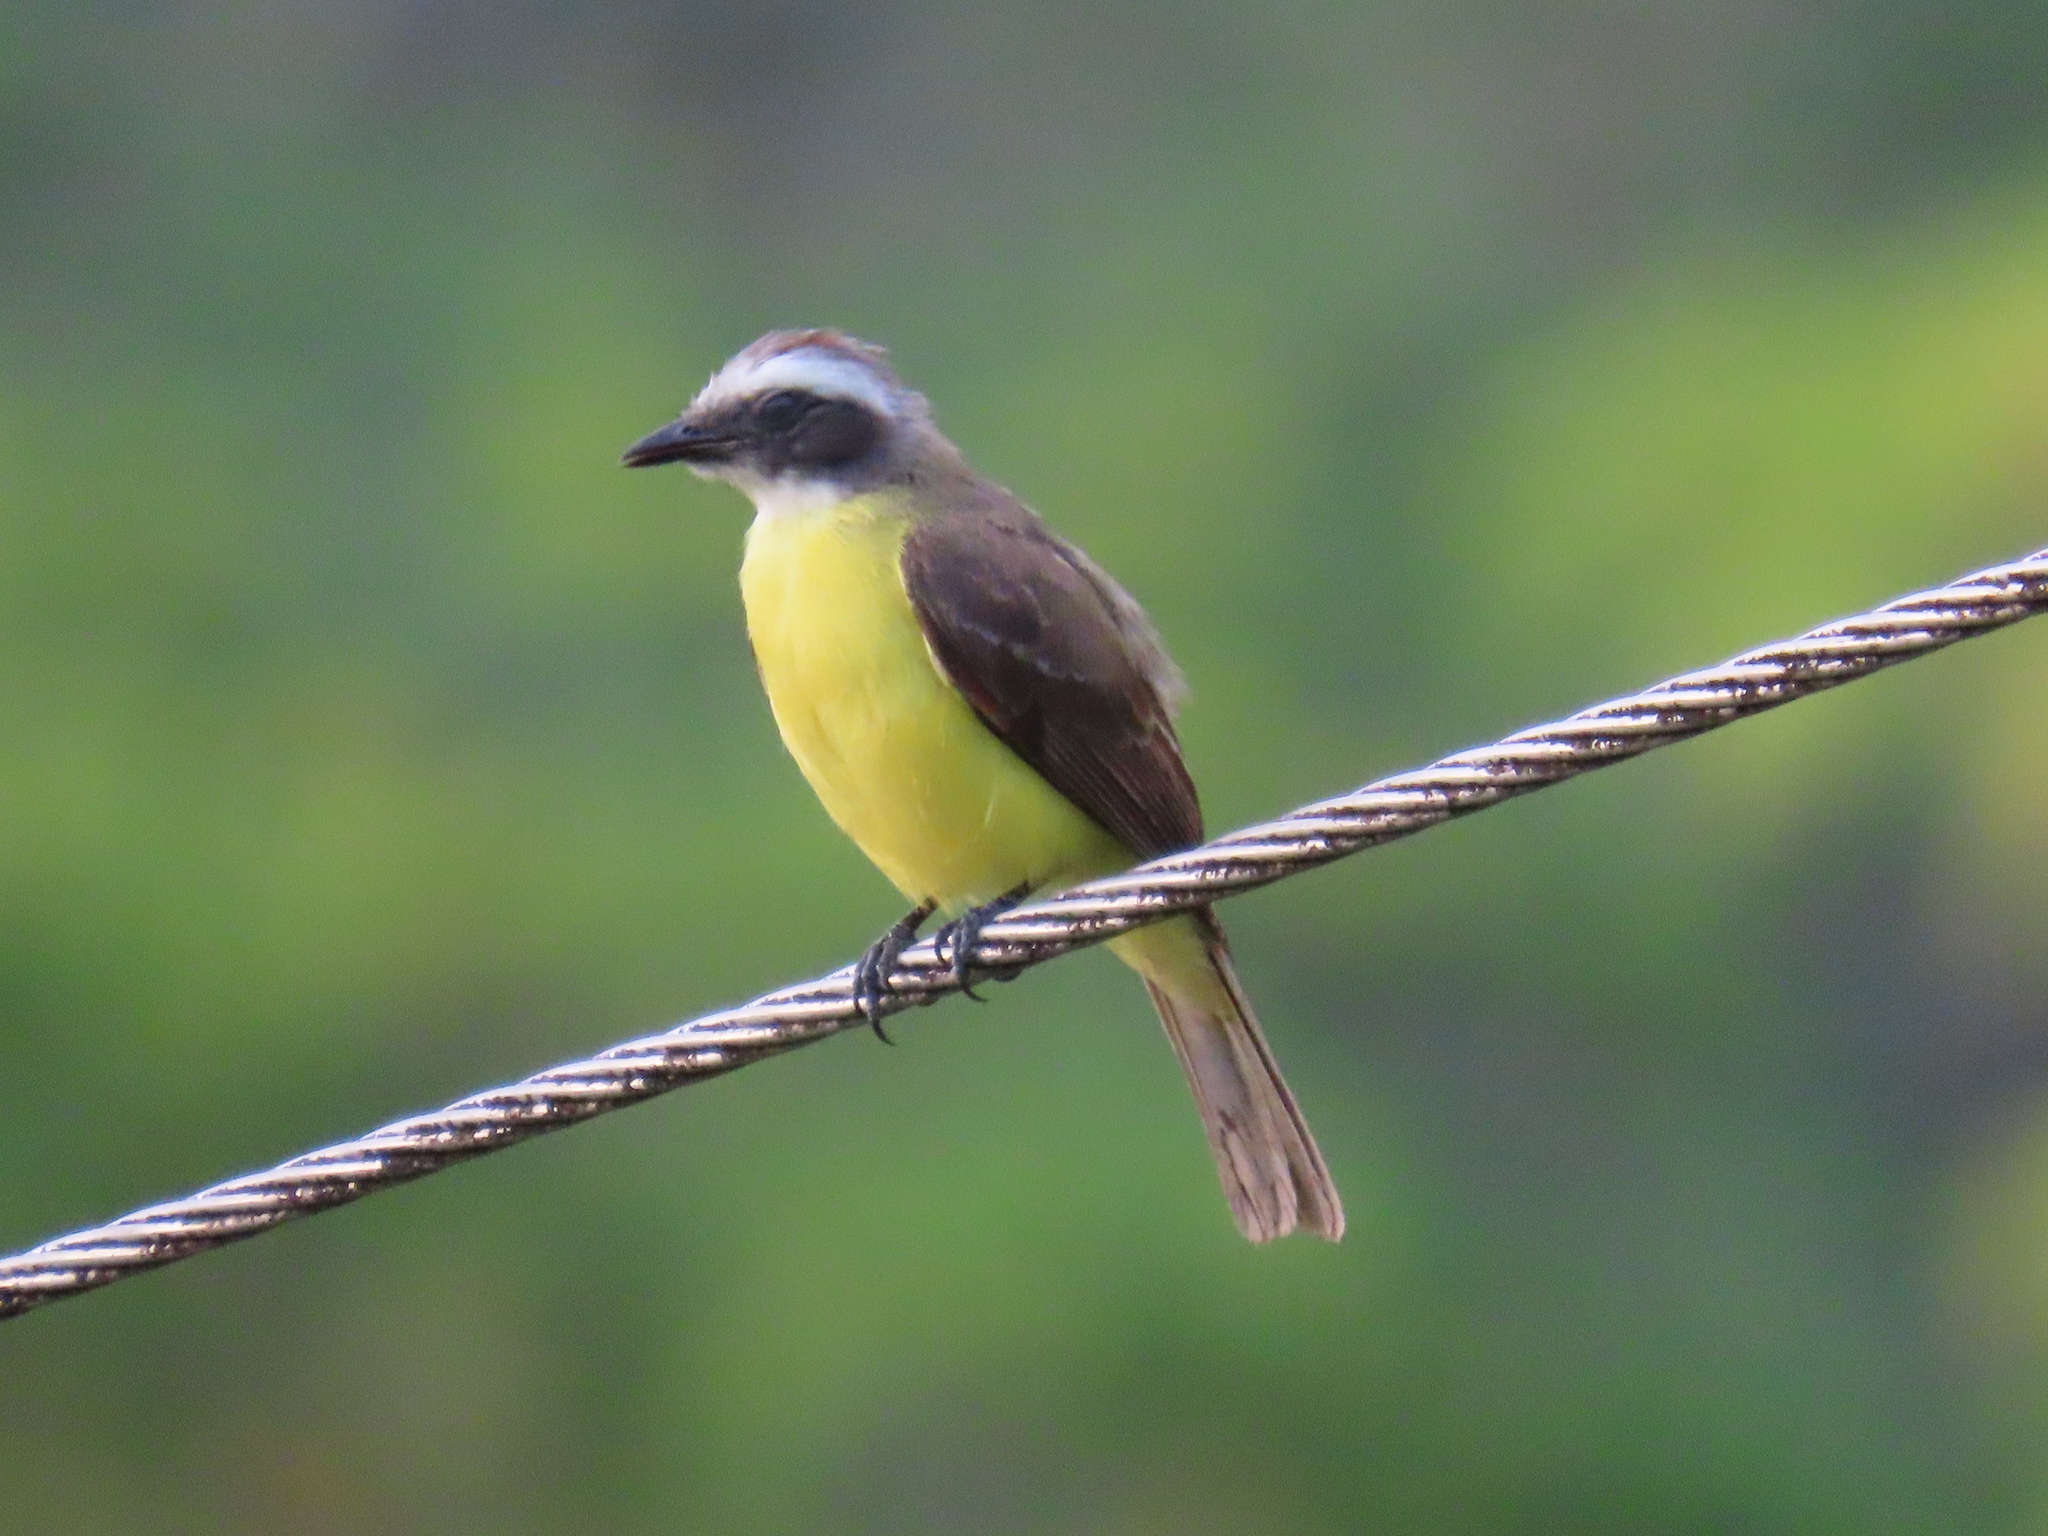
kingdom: Animalia
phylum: Chordata
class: Aves
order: Passeriformes
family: Tyrannidae
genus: Myiozetetes
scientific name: Myiozetetes similis
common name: Social flycatcher
